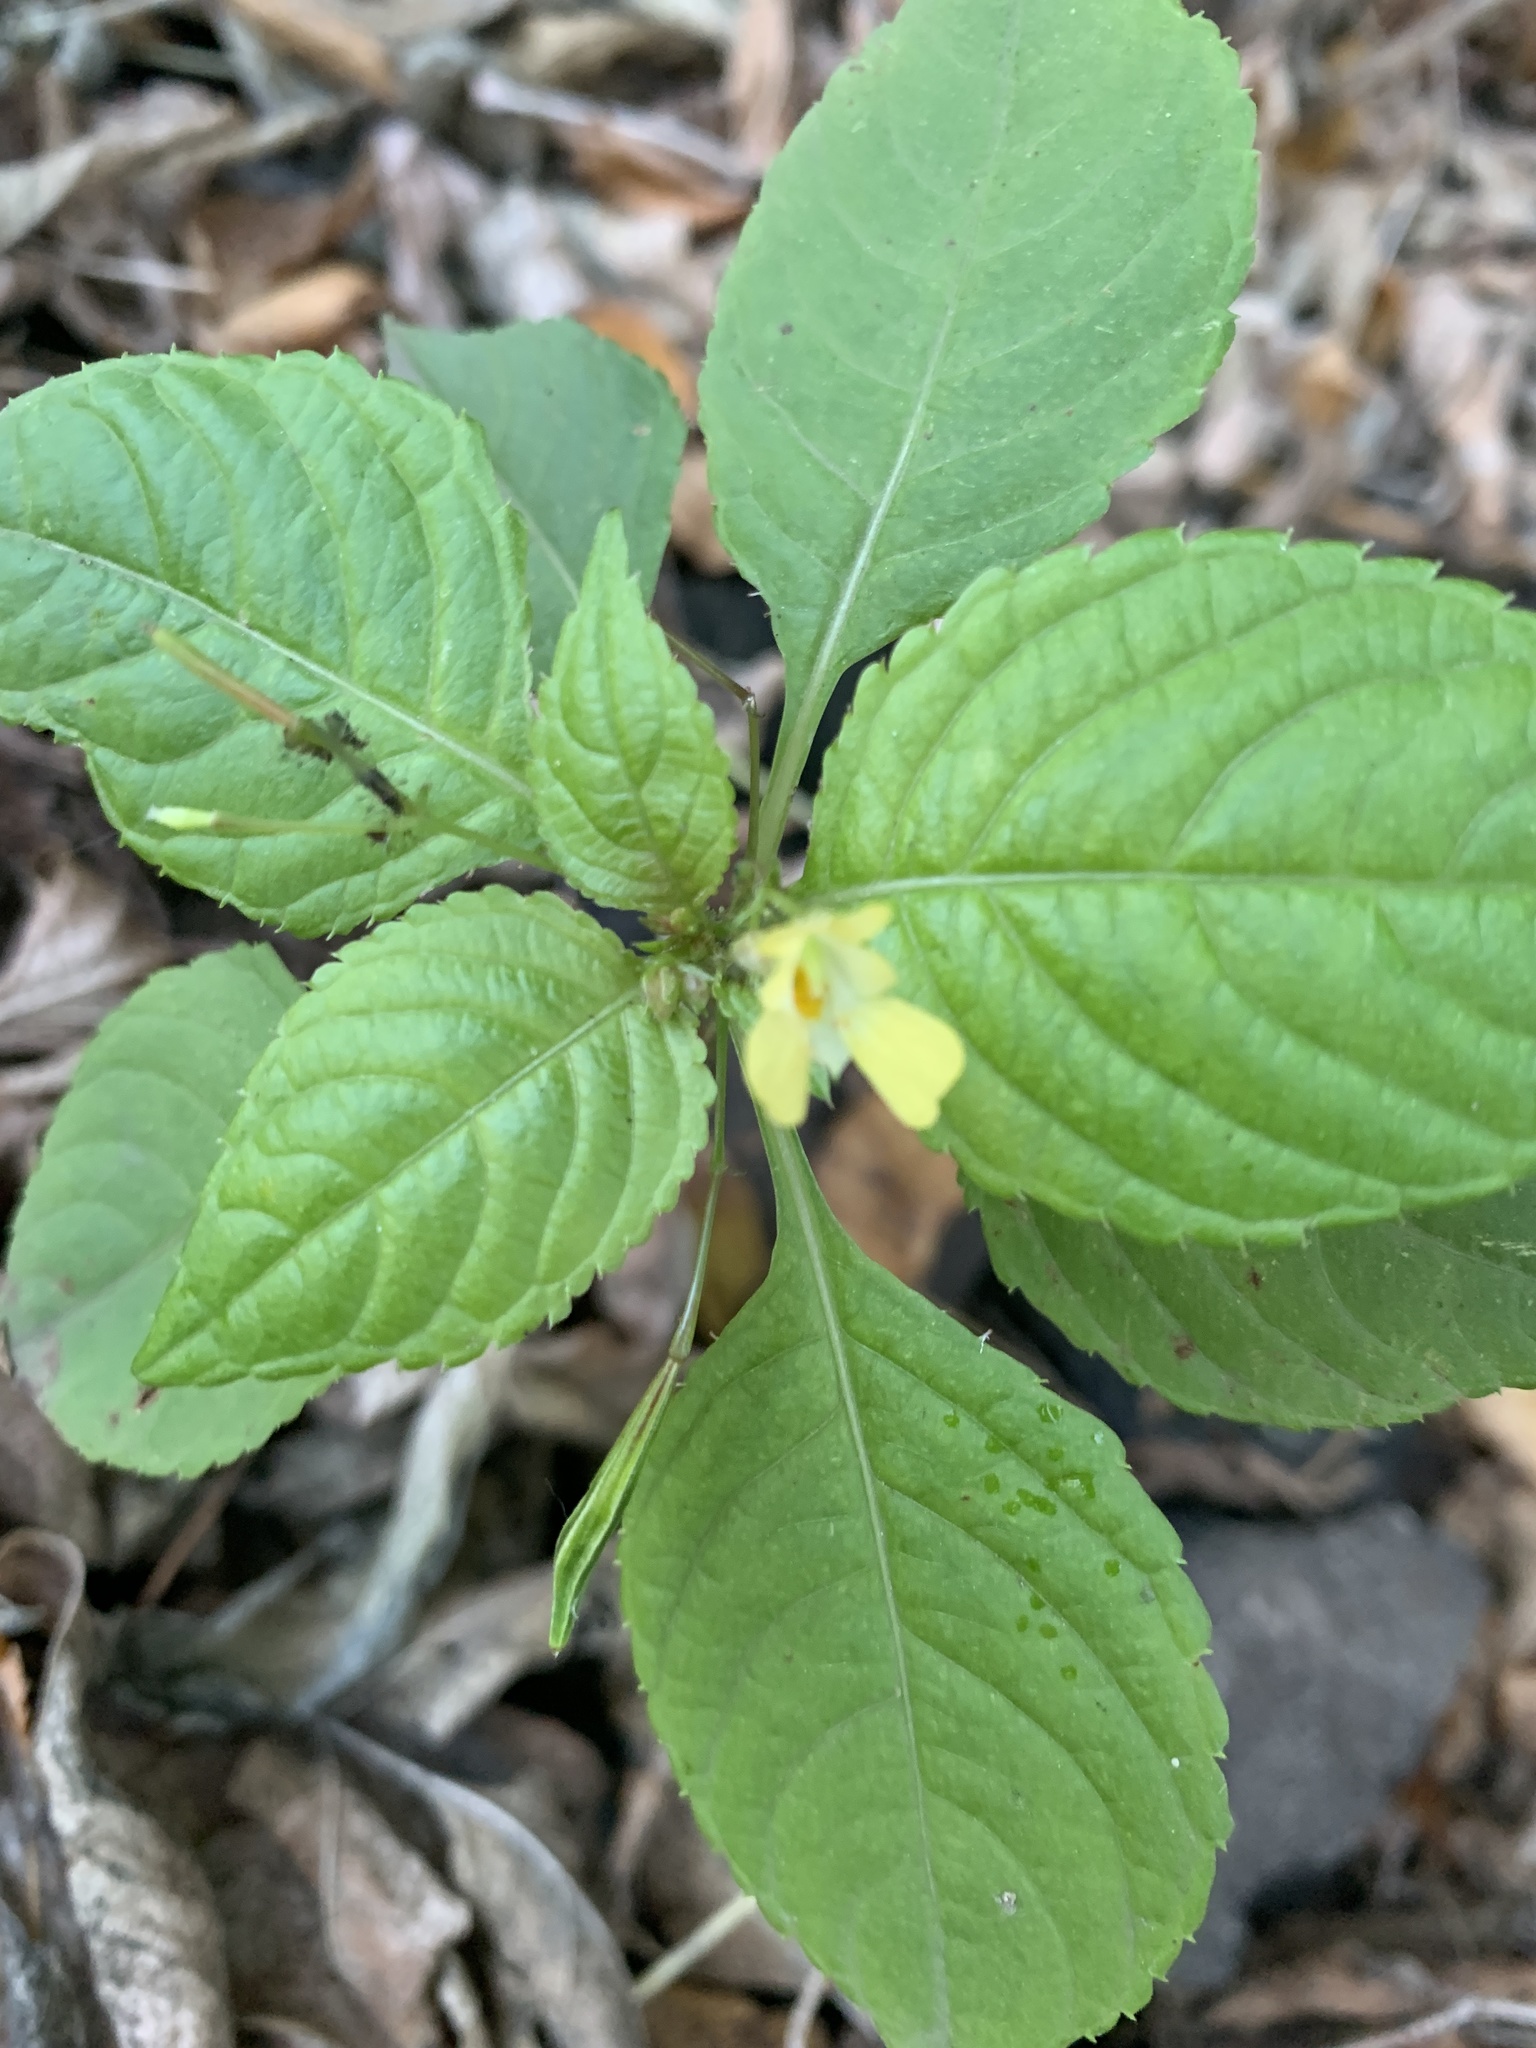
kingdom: Plantae
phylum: Tracheophyta
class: Magnoliopsida
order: Ericales
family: Balsaminaceae
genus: Impatiens
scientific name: Impatiens parviflora
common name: Small balsam
